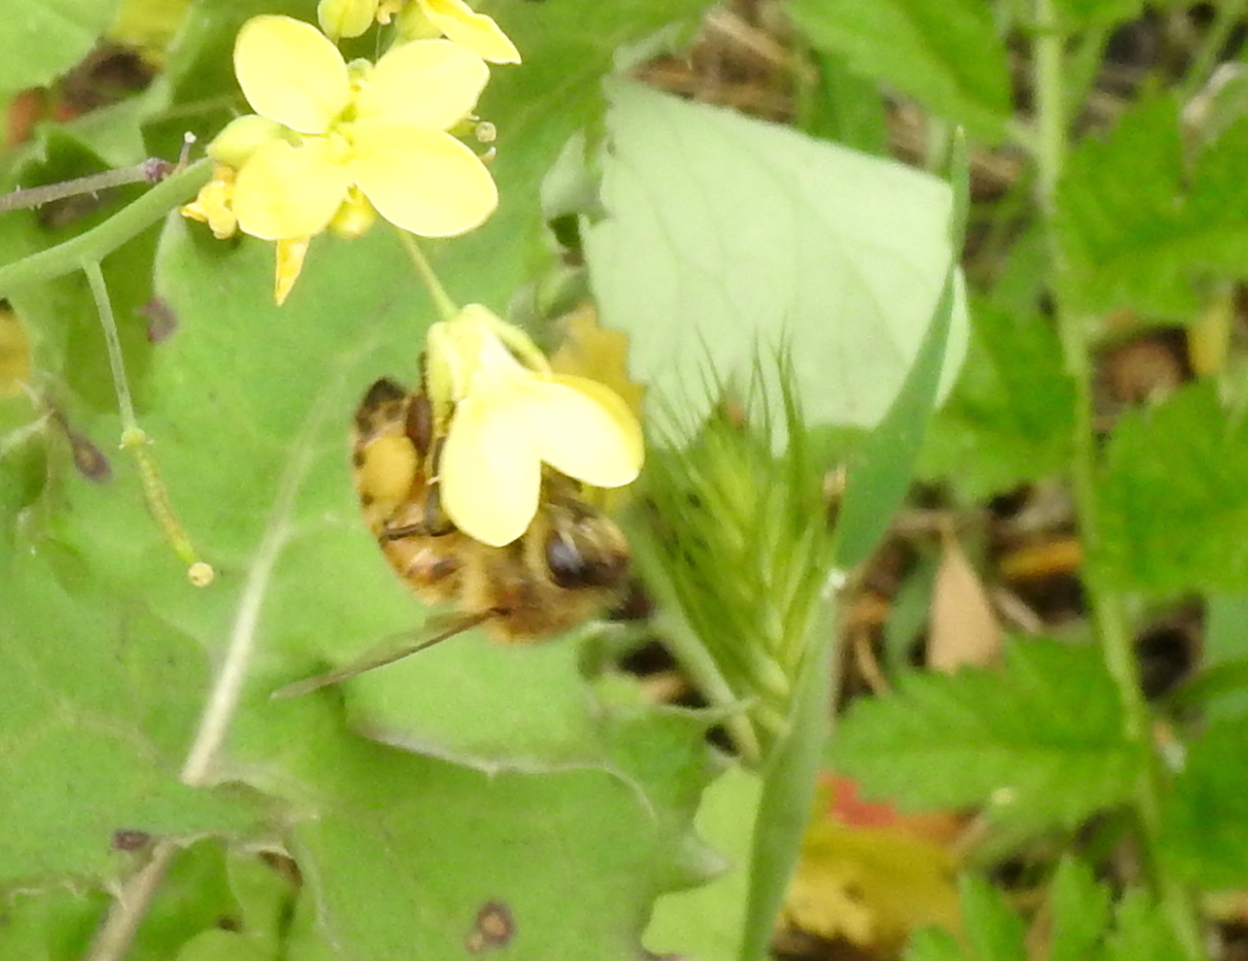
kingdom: Animalia
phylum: Arthropoda
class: Insecta
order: Hymenoptera
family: Apidae
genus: Apis
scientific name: Apis mellifera
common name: Honey bee
